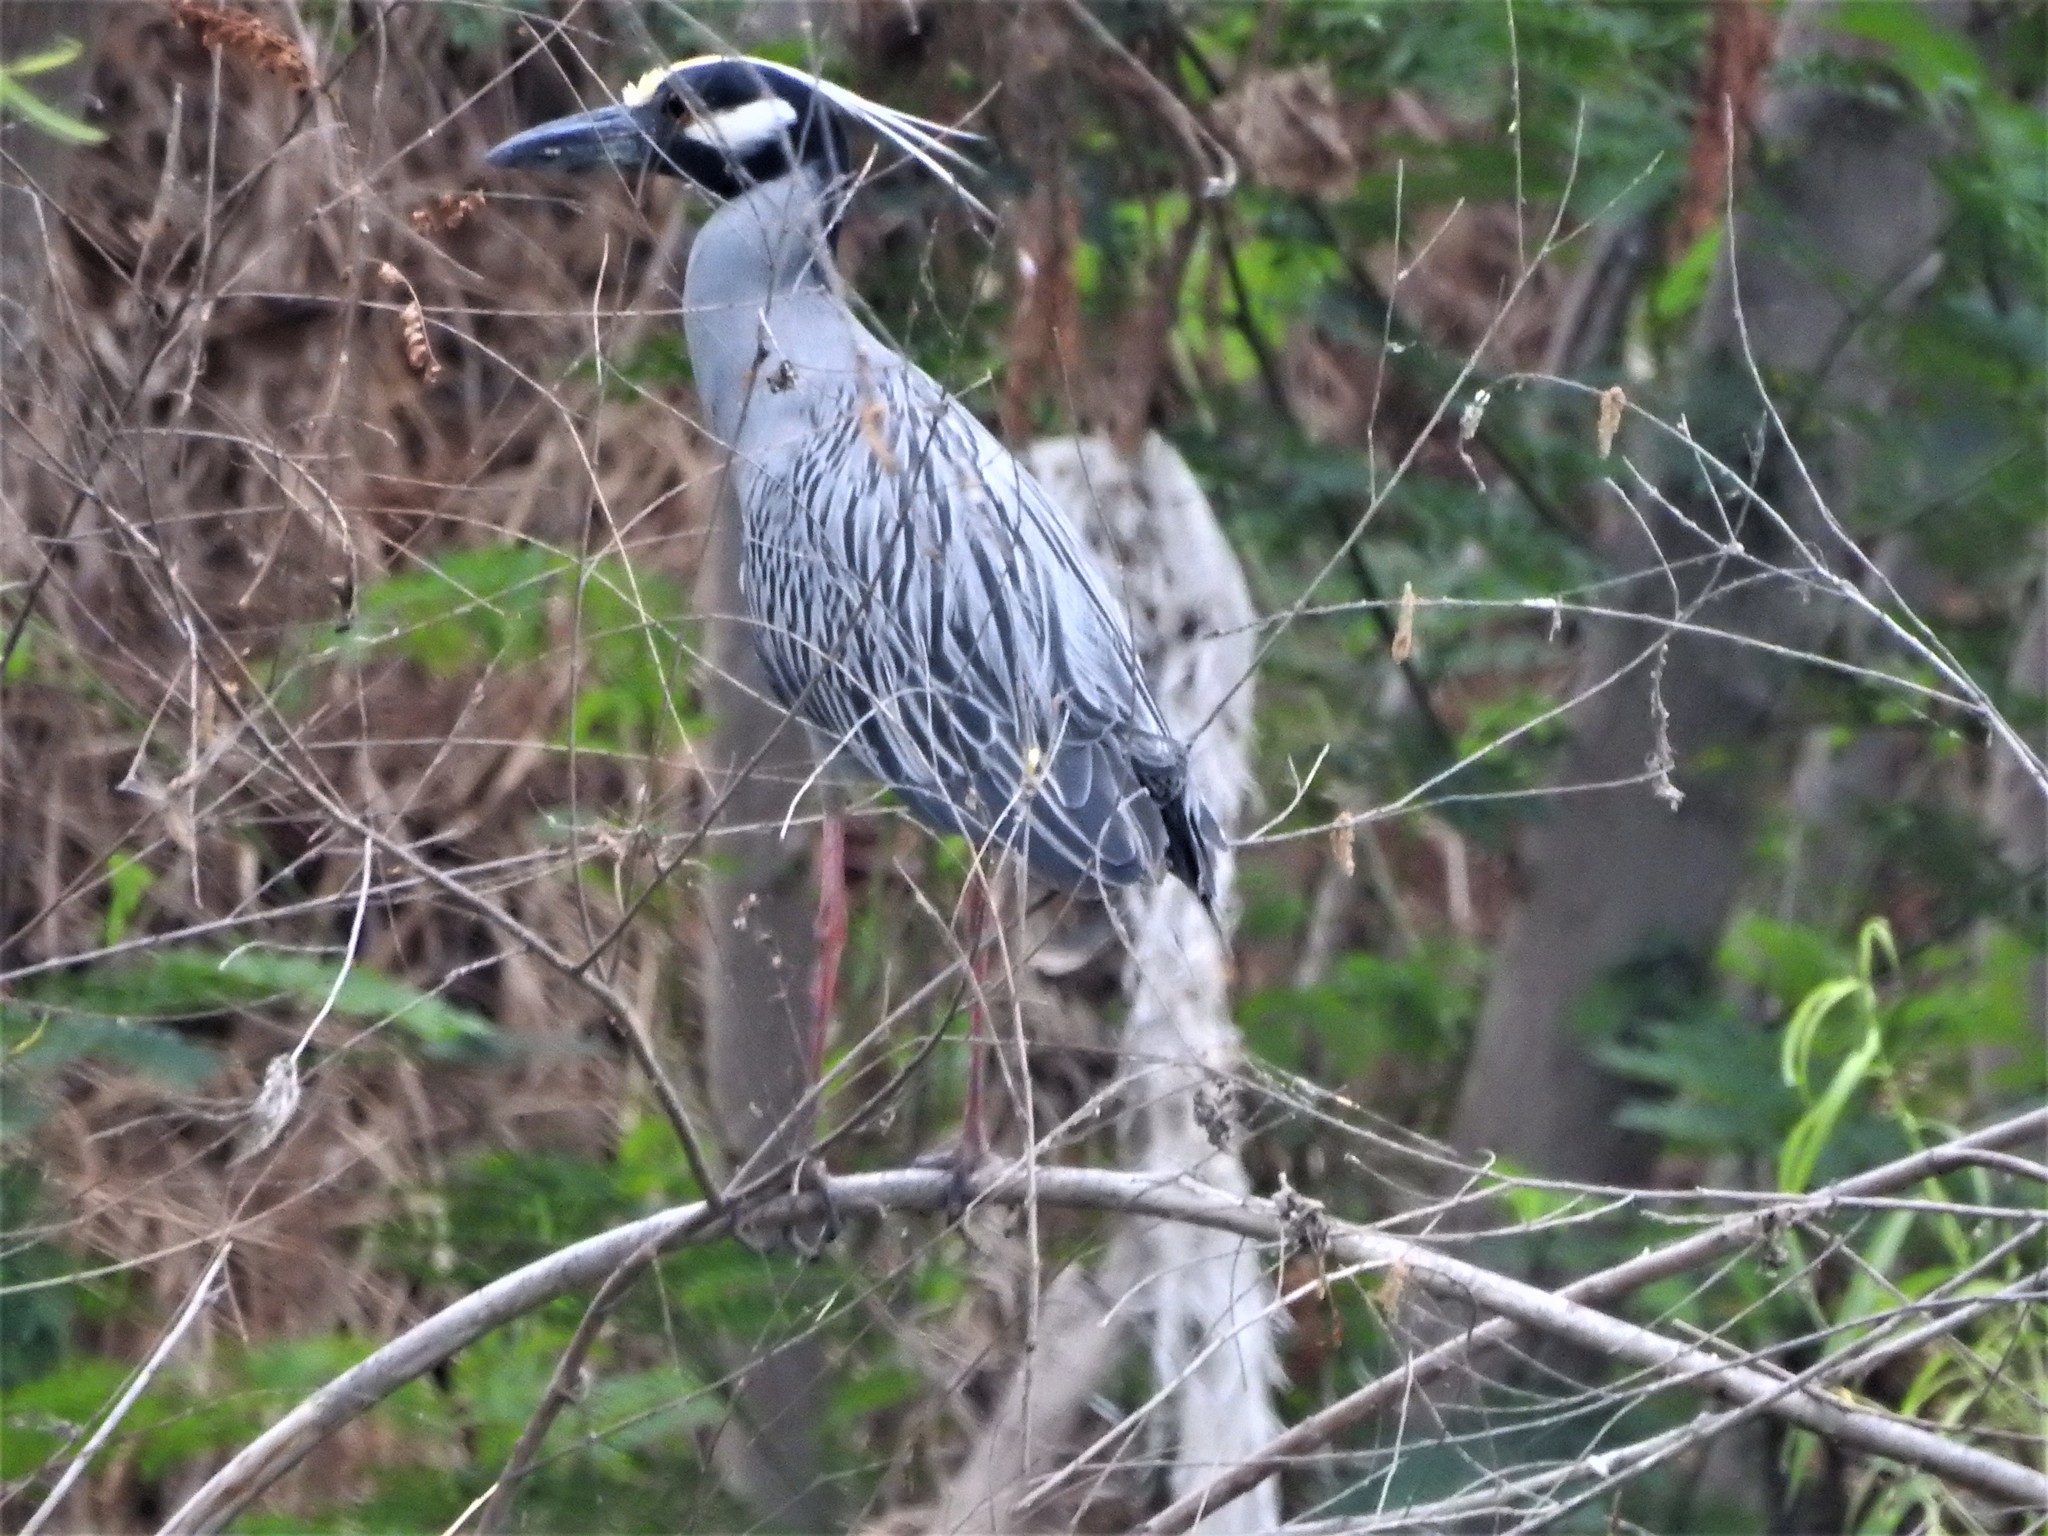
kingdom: Animalia
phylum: Chordata
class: Aves
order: Pelecaniformes
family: Ardeidae
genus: Nyctanassa
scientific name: Nyctanassa violacea
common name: Yellow-crowned night heron
